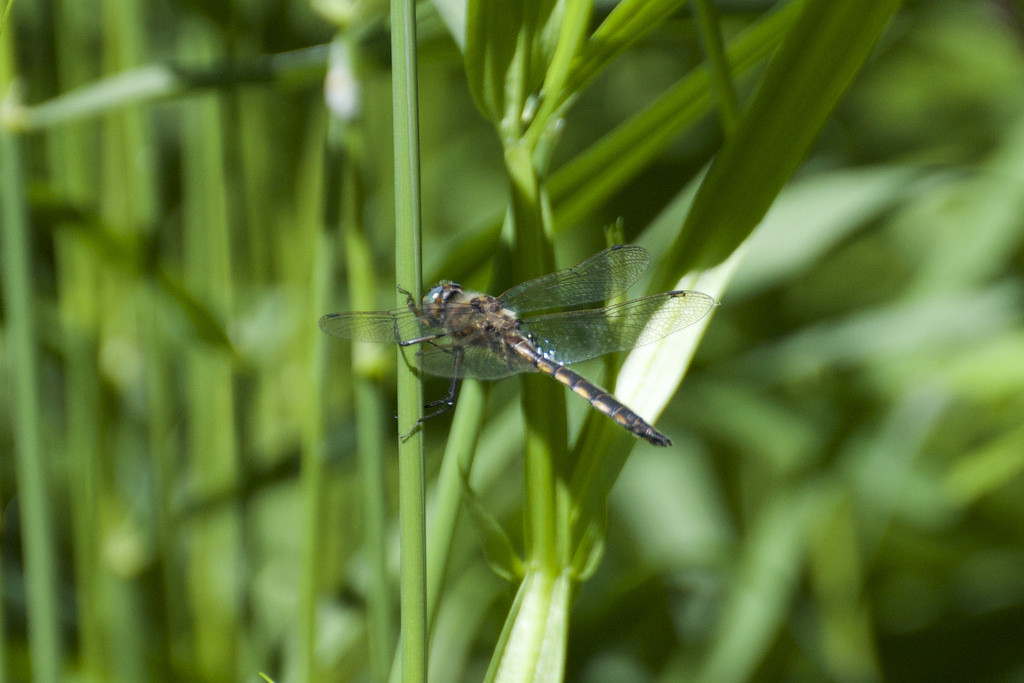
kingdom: Animalia
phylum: Arthropoda
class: Insecta
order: Odonata
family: Corduliidae
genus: Epitheca
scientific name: Epitheca canis
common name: Beaverpond baskettail
